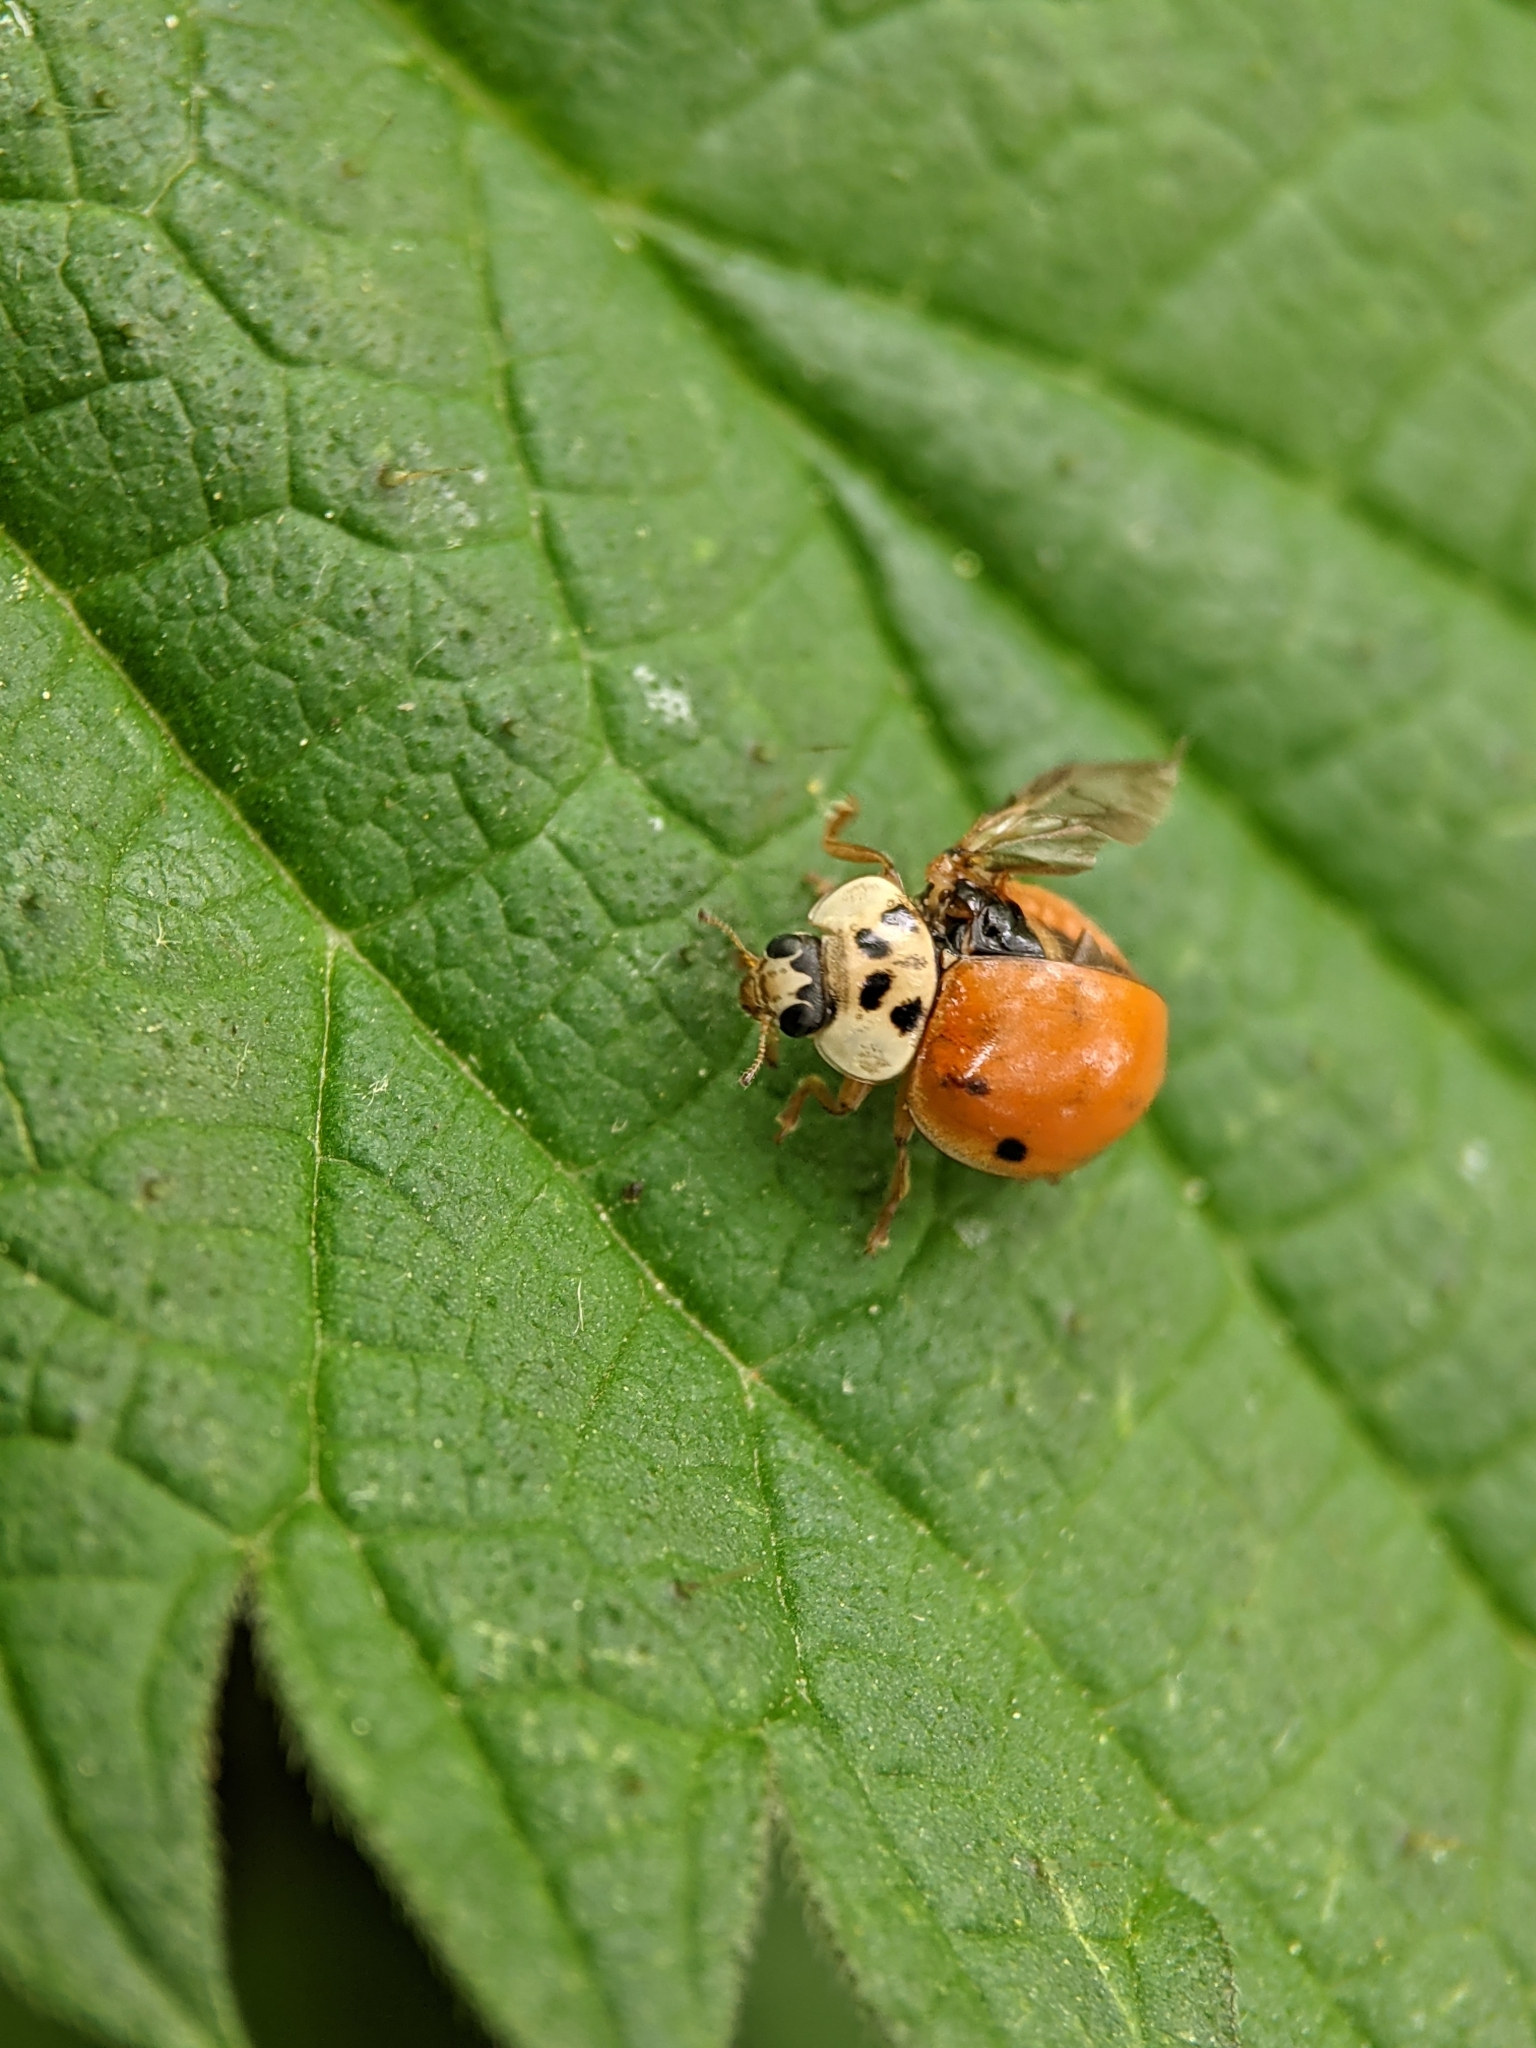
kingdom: Animalia
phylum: Arthropoda
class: Insecta
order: Coleoptera
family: Coccinellidae
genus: Harmonia
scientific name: Harmonia axyridis
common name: Harlequin ladybird
